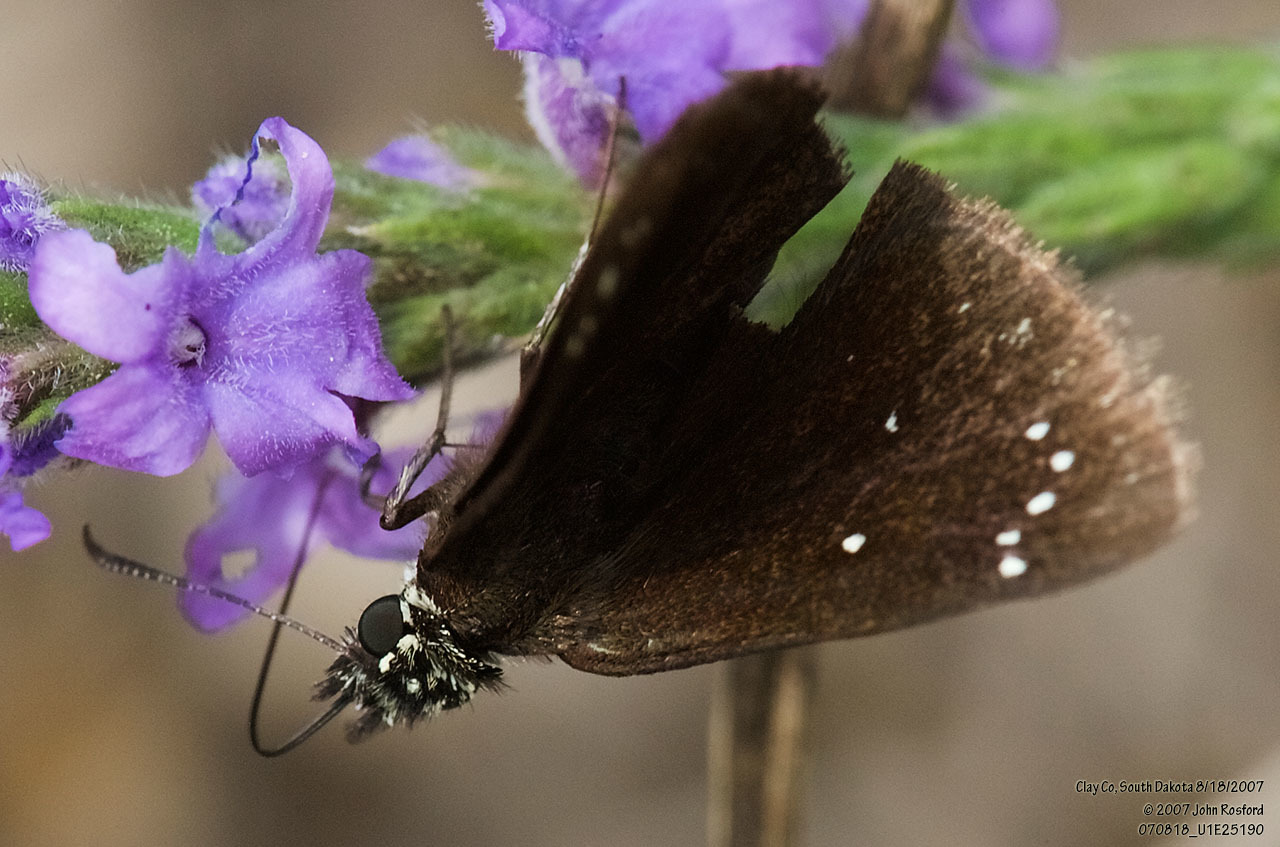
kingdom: Animalia
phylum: Arthropoda
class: Insecta
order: Lepidoptera
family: Hesperiidae
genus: Pholisora
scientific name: Pholisora catullus
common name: Common sootywing
